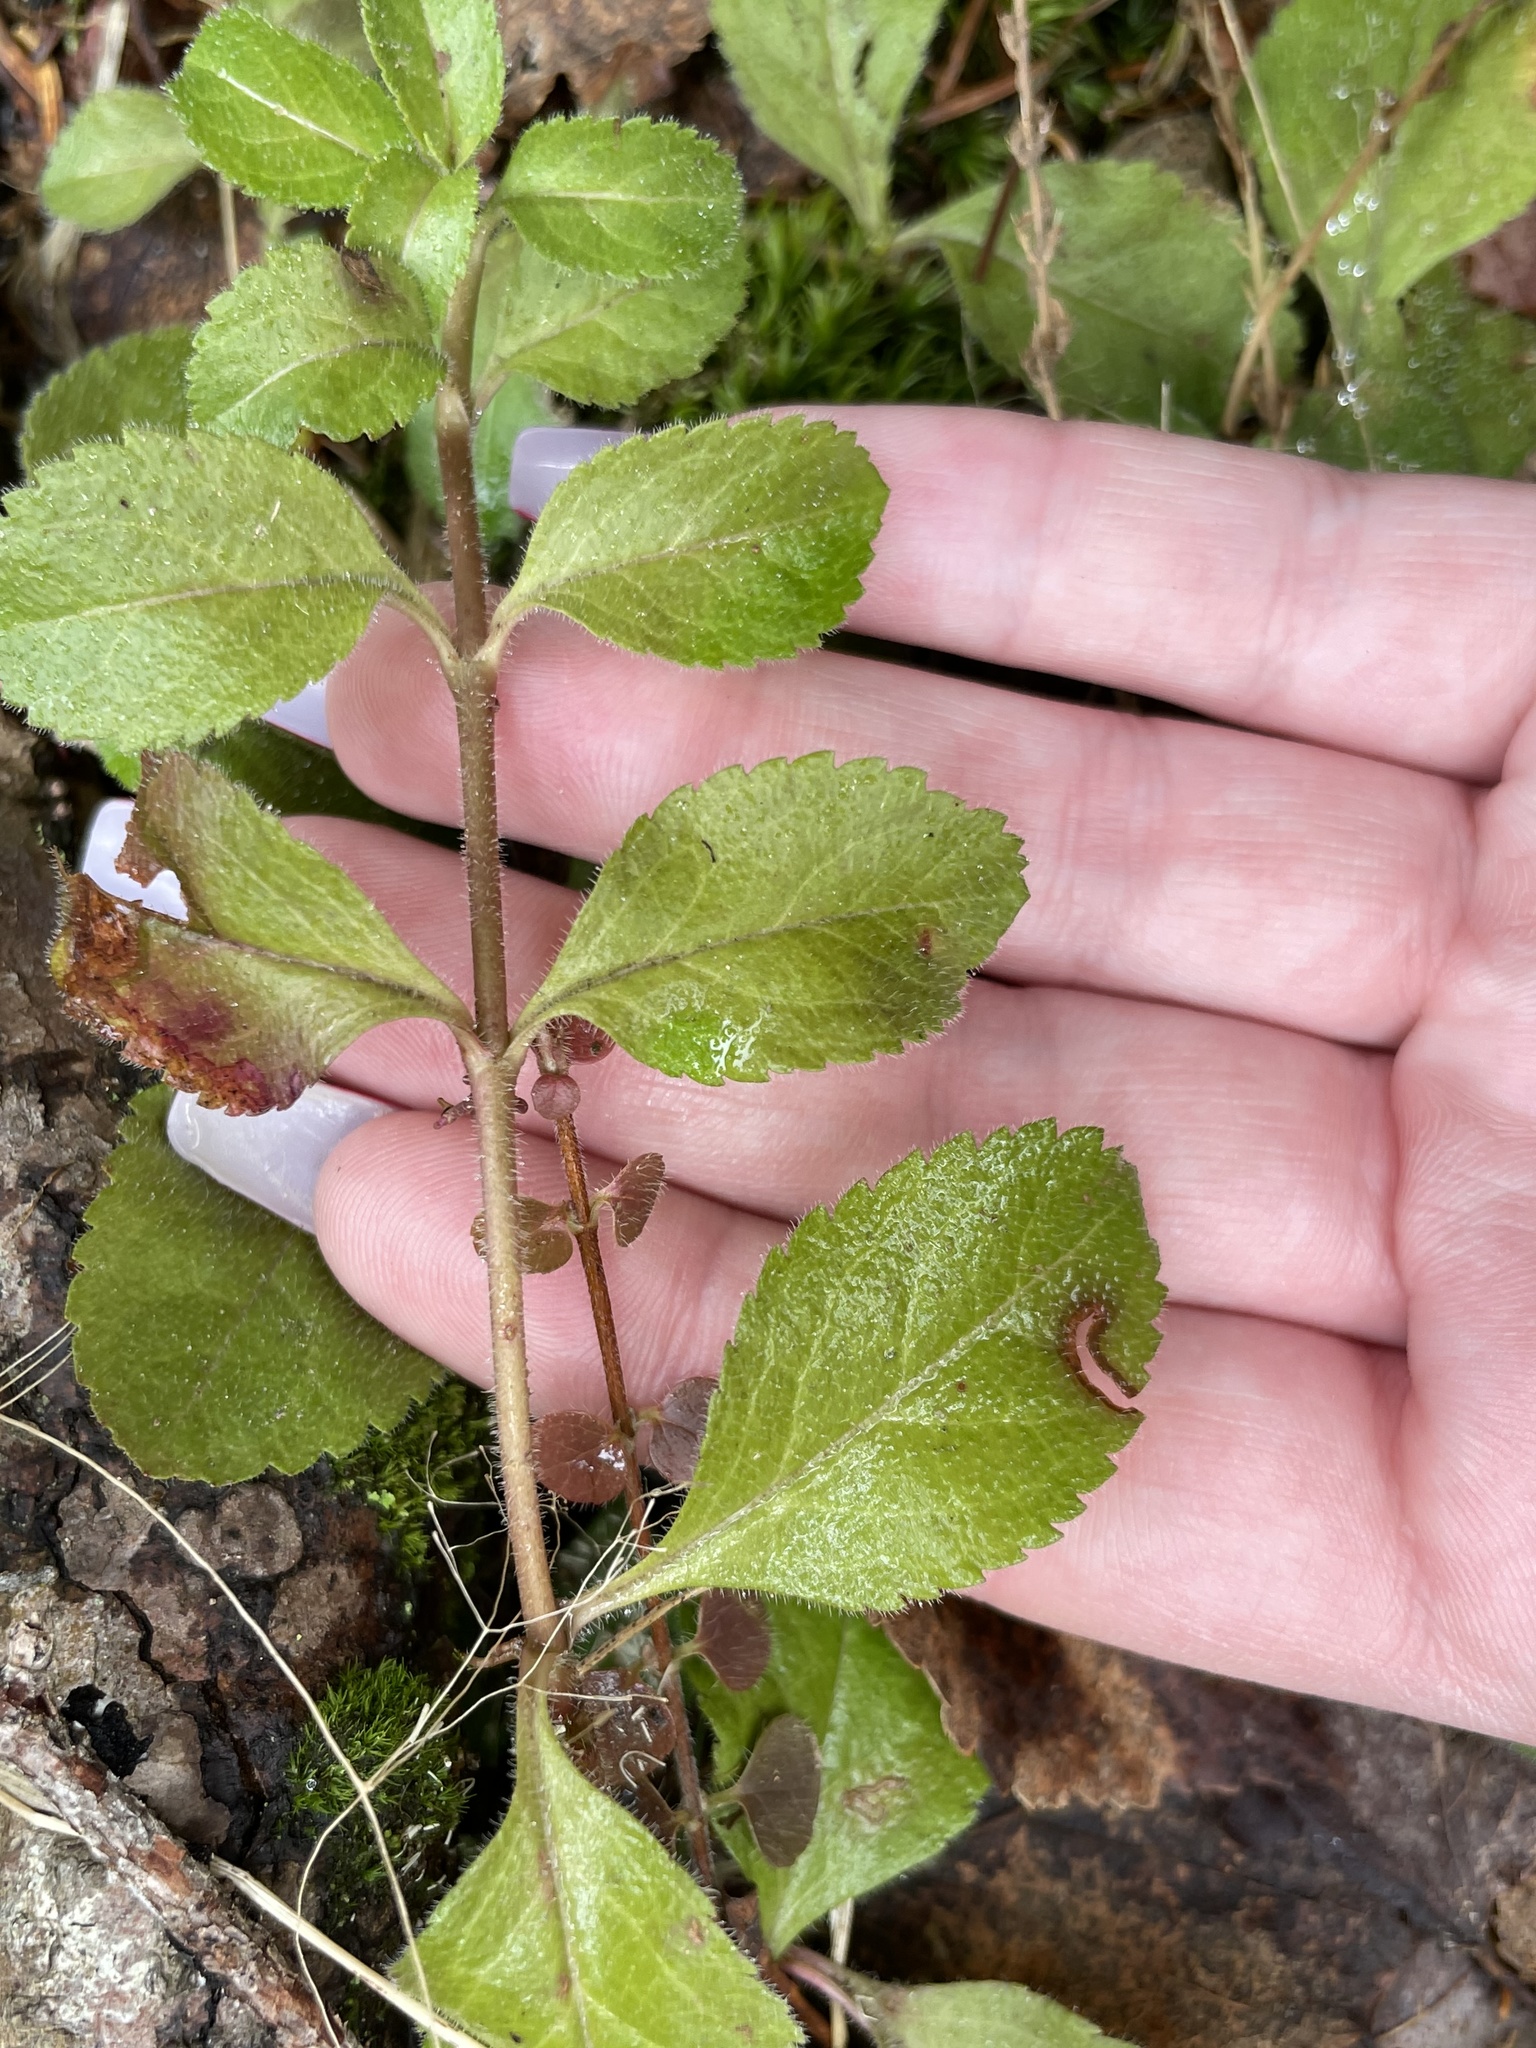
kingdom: Plantae
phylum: Tracheophyta
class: Magnoliopsida
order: Lamiales
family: Plantaginaceae
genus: Veronica
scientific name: Veronica officinalis
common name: Common speedwell
